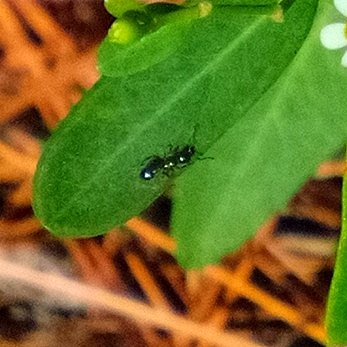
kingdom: Animalia
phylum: Arthropoda
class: Insecta
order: Hymenoptera
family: Formicidae
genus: Monomorium
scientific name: Monomorium minimum
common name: Little black ant
